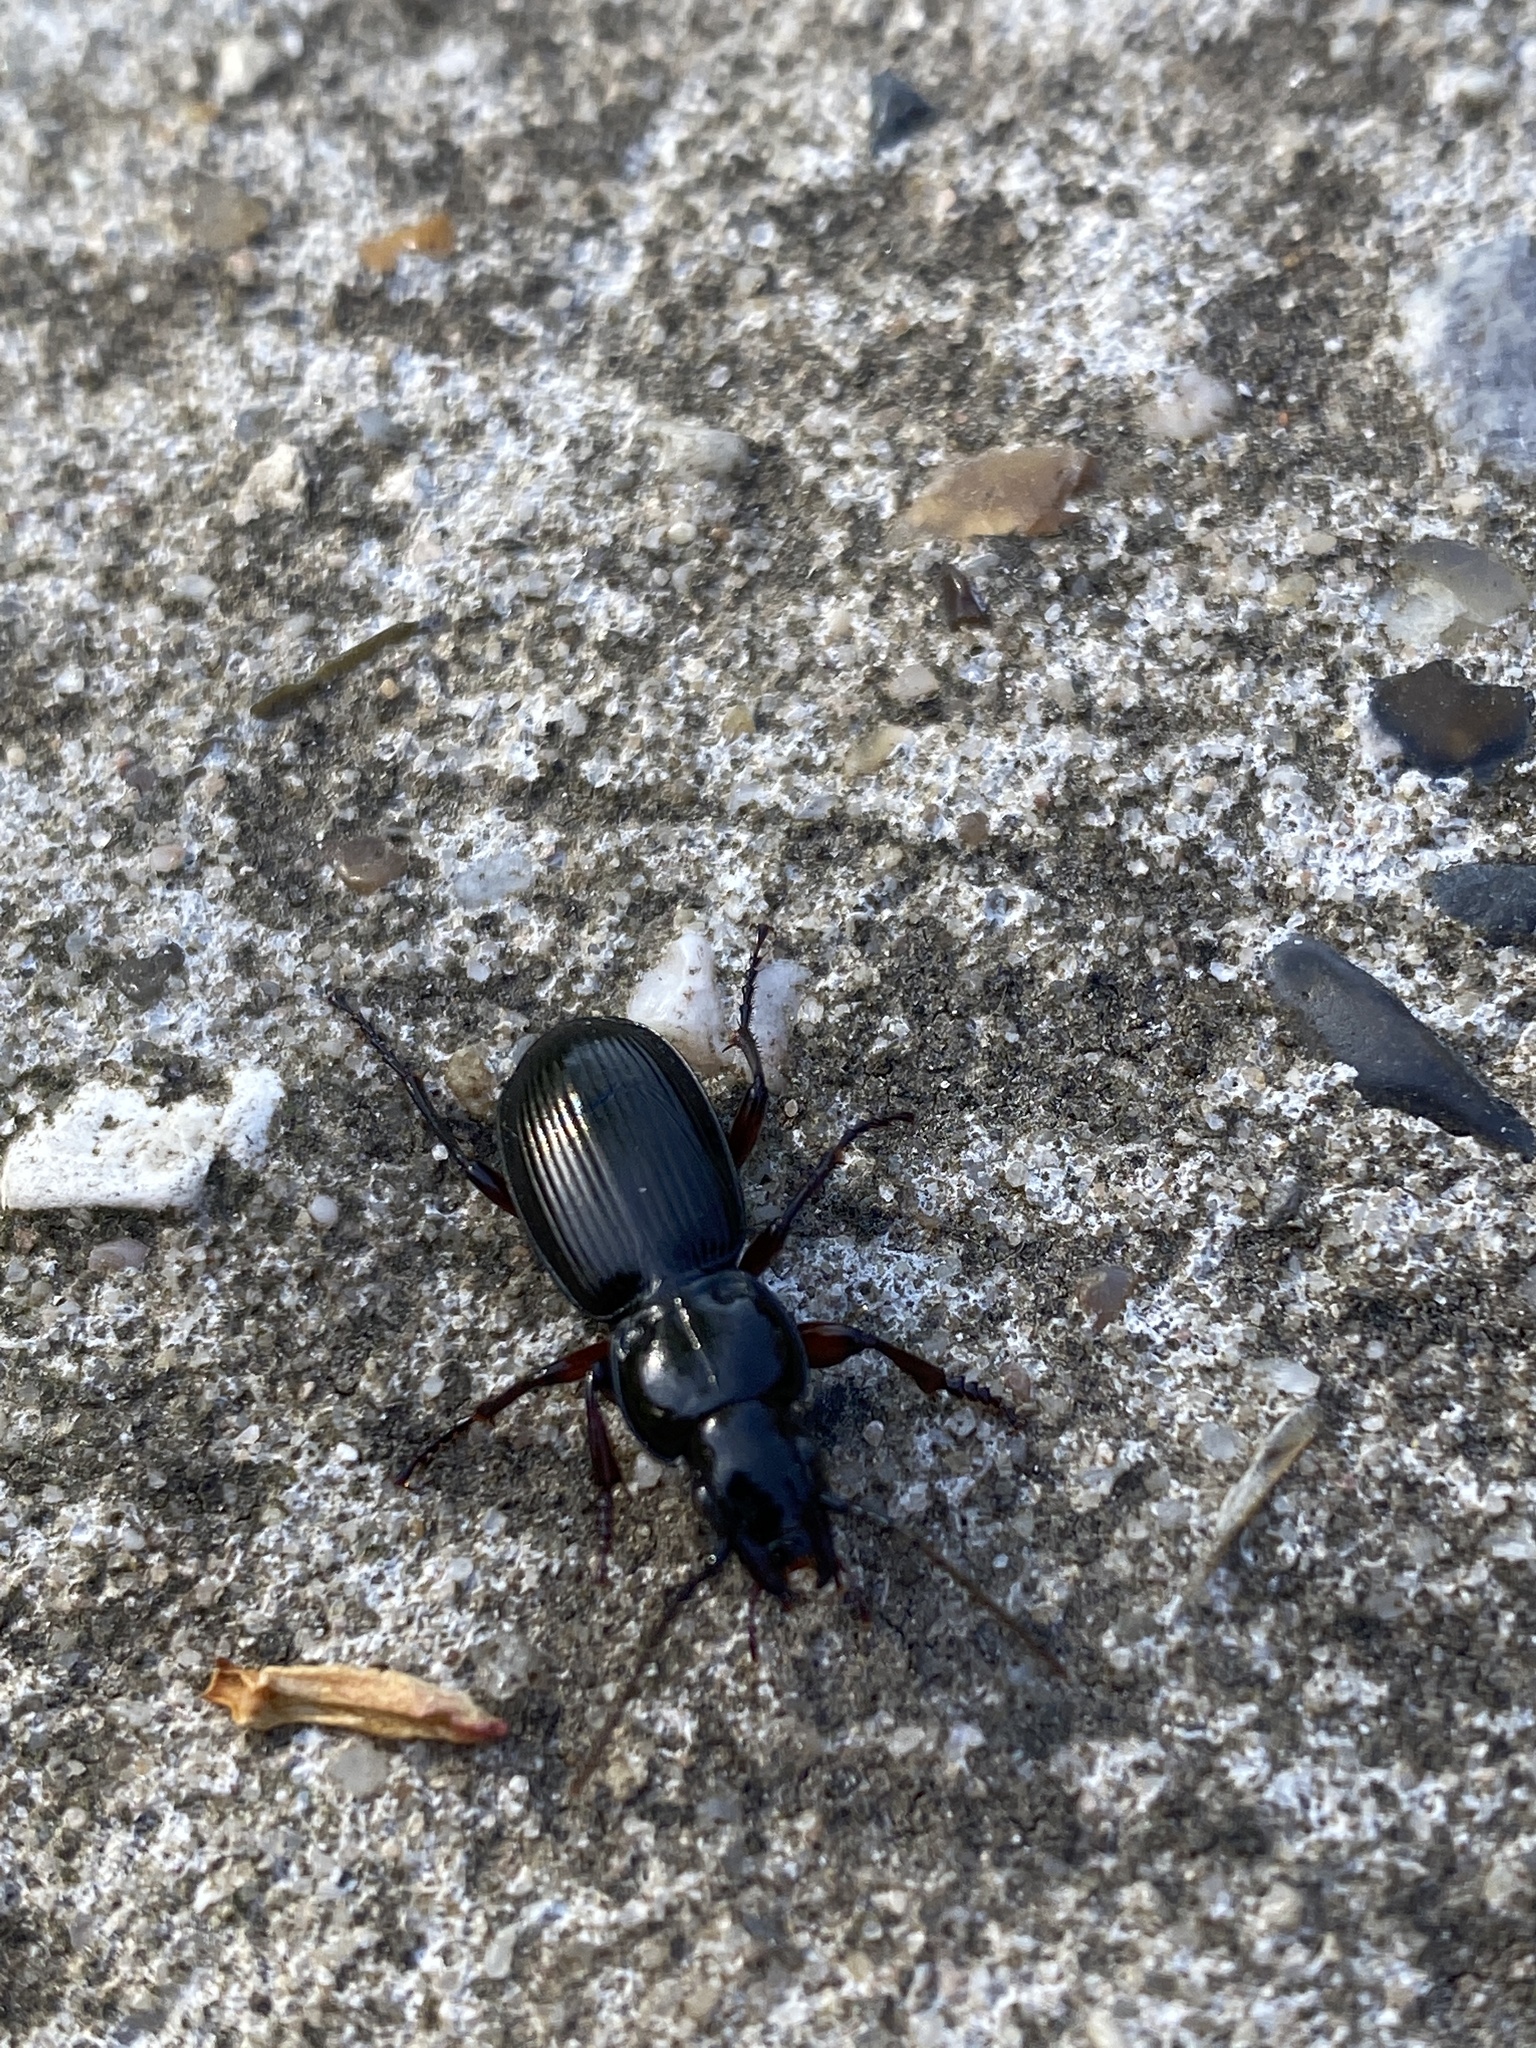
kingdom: Animalia
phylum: Arthropoda
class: Insecta
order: Coleoptera
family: Carabidae
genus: Pterostichus
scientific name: Pterostichus madidus
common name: Black clock
